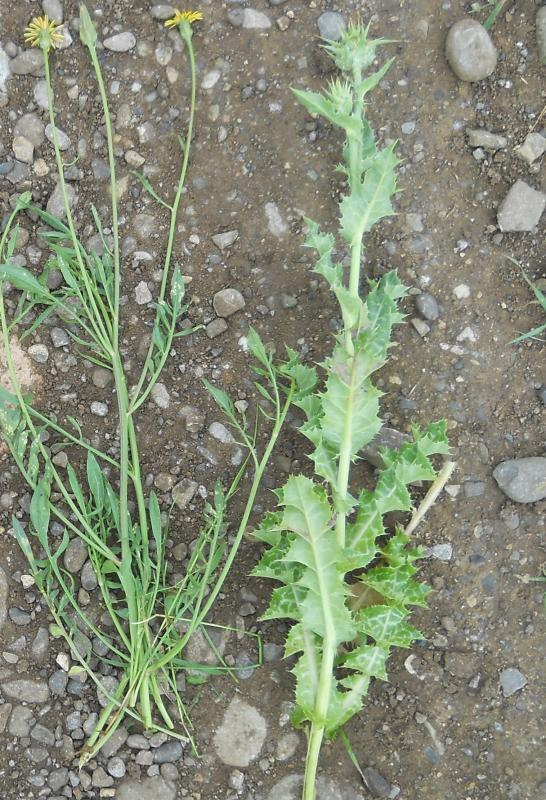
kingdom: Plantae
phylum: Tracheophyta
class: Magnoliopsida
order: Asterales
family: Asteraceae
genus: Silybum
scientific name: Silybum marianum
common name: Milk thistle
